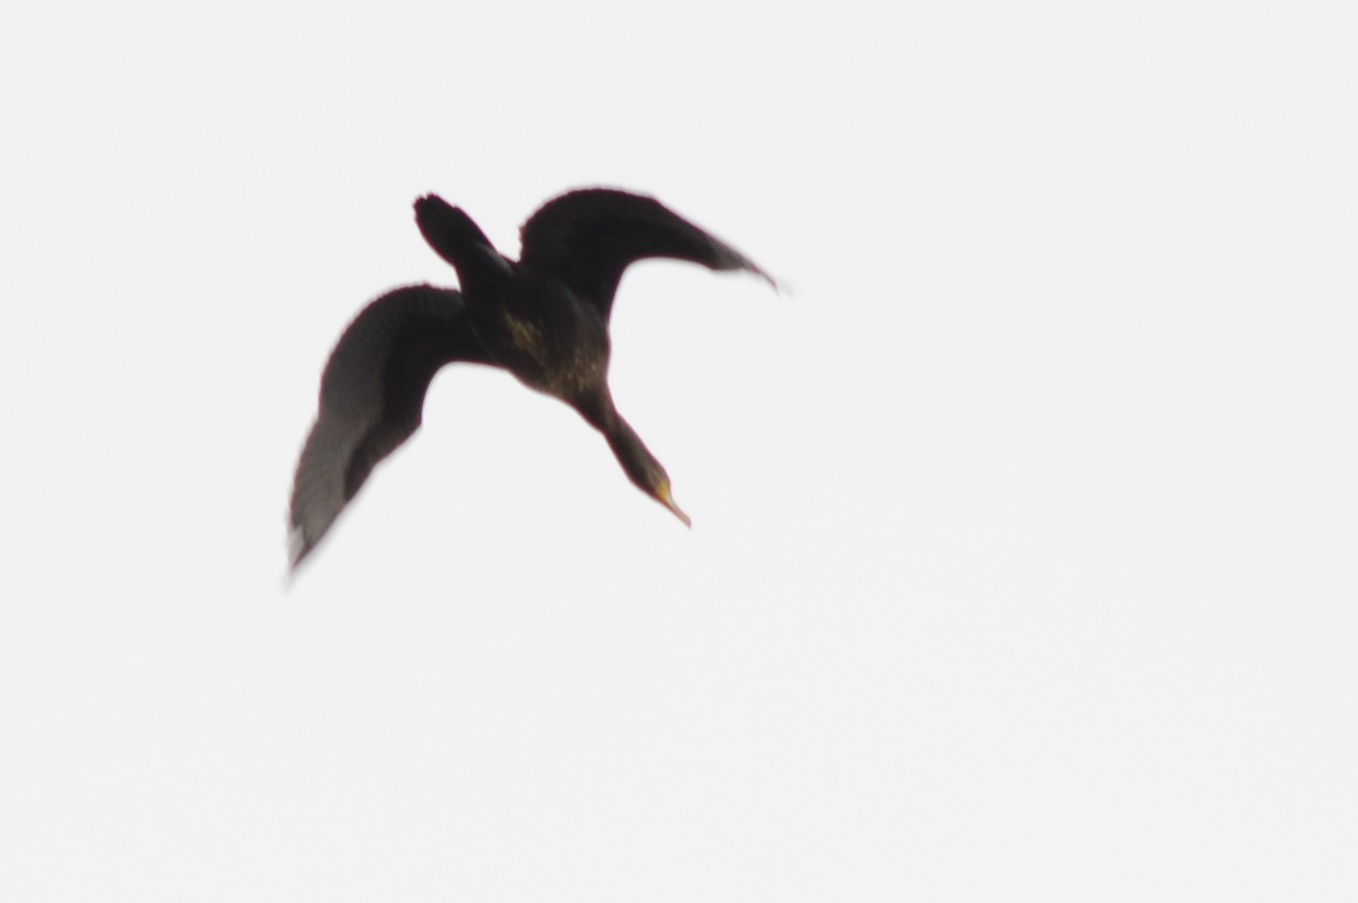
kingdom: Animalia
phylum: Chordata
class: Aves
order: Suliformes
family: Phalacrocoracidae
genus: Phalacrocorax
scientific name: Phalacrocorax carbo
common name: Great cormorant
